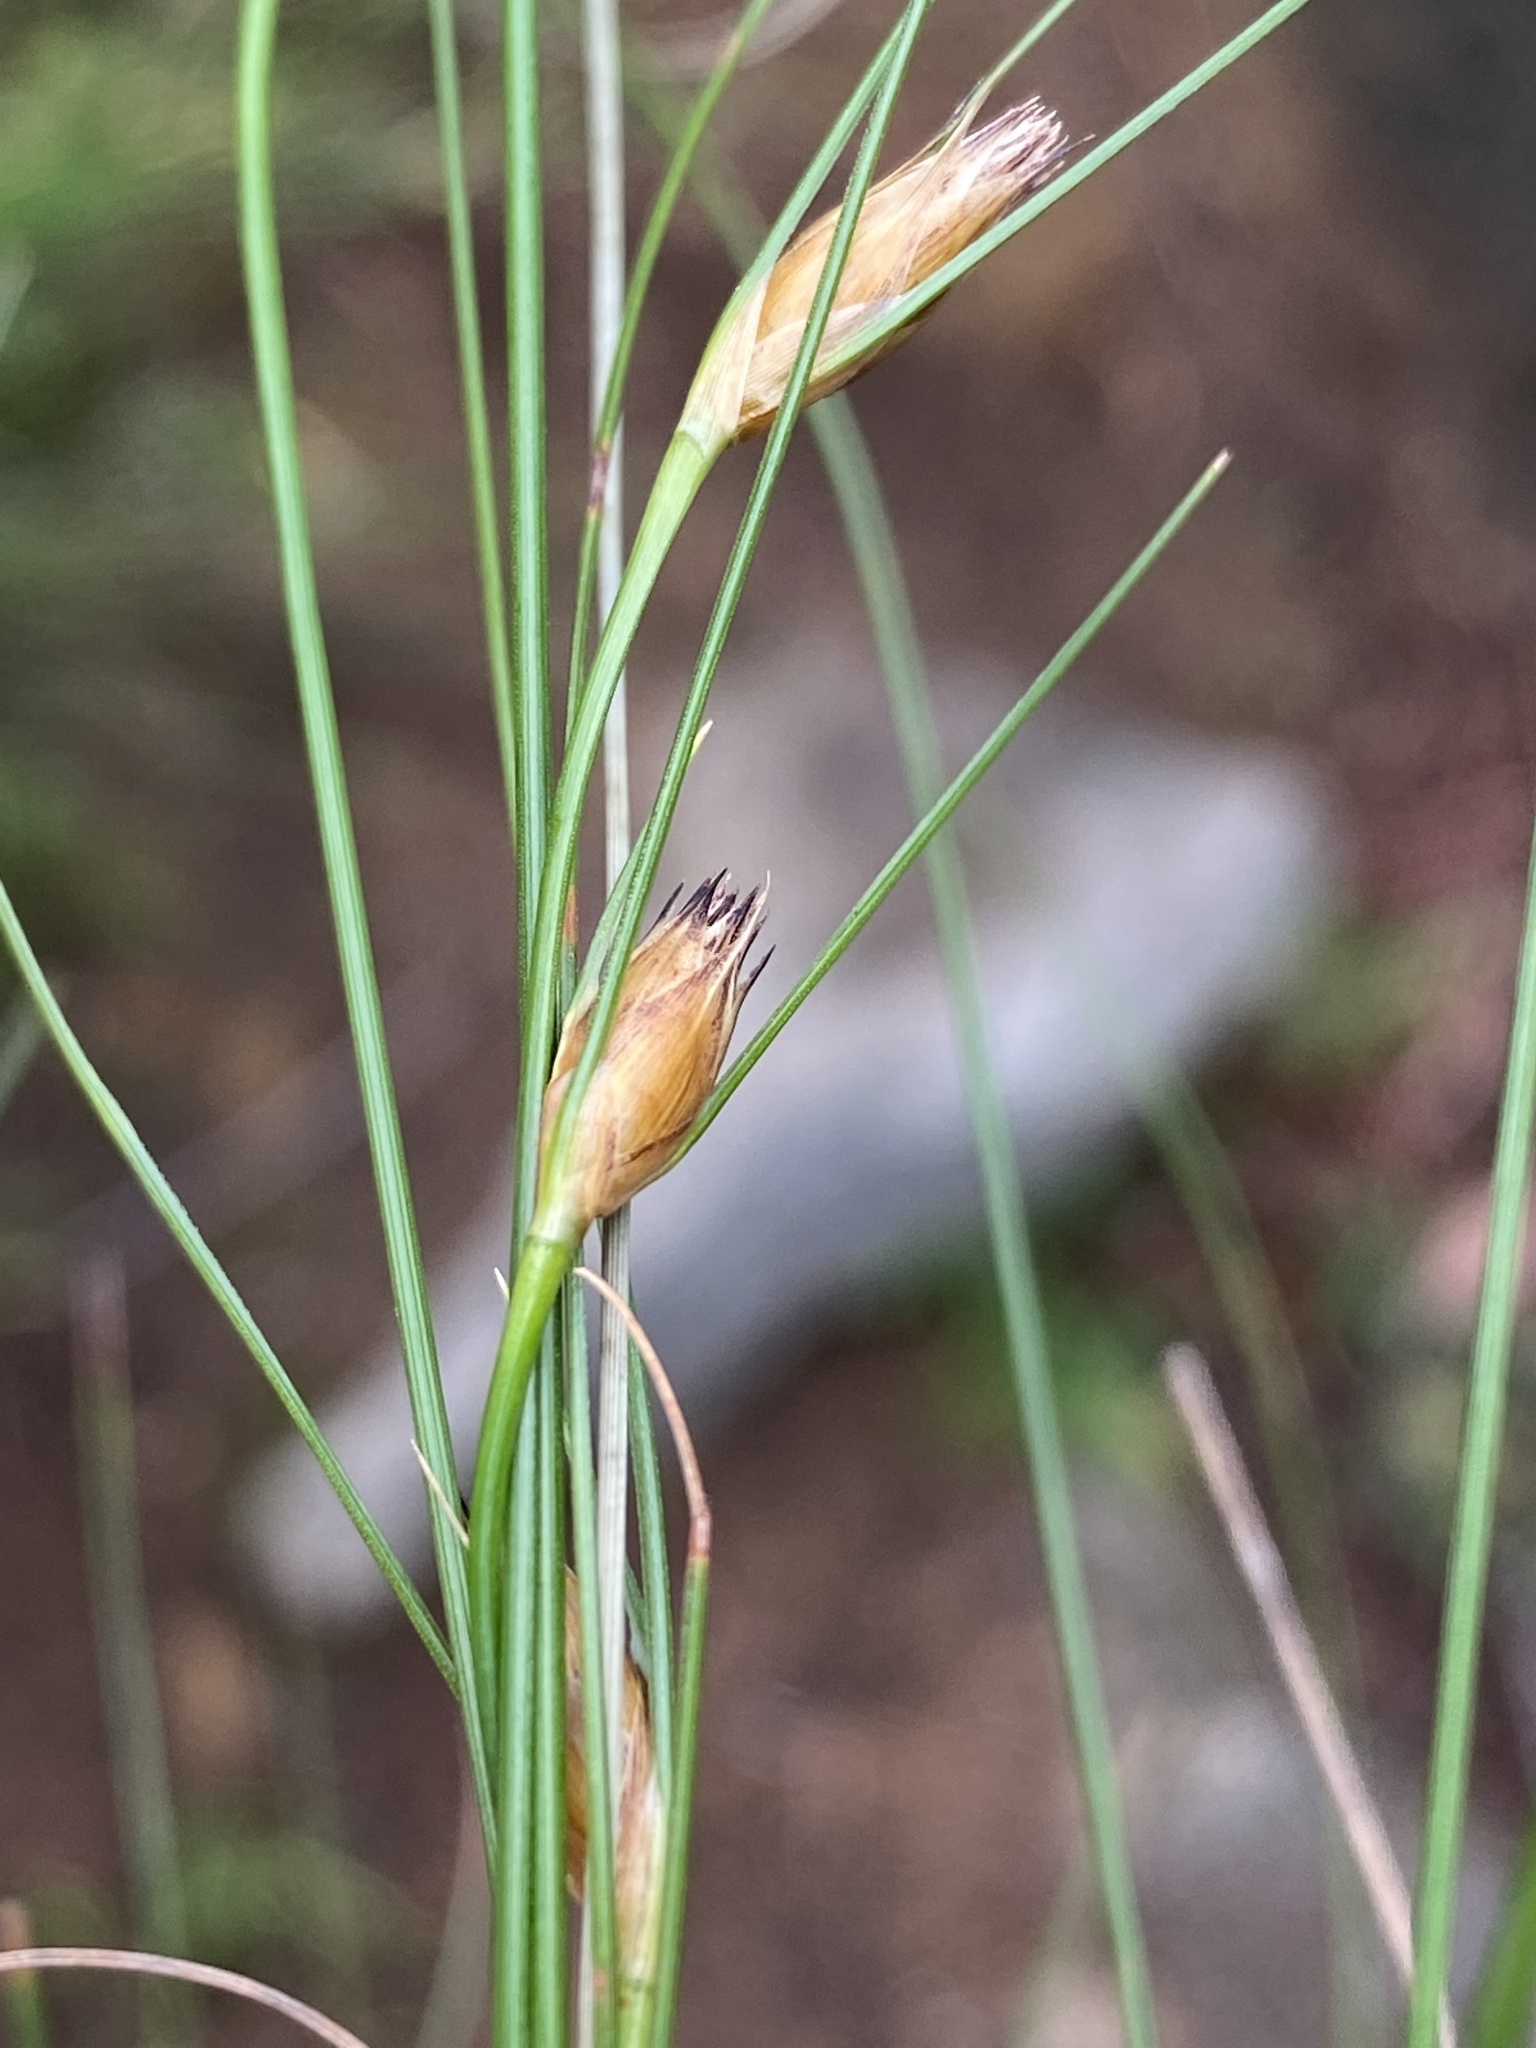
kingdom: Plantae
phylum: Tracheophyta
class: Liliopsida
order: Poales
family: Cyperaceae
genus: Ficinia
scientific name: Ficinia nigrescens
